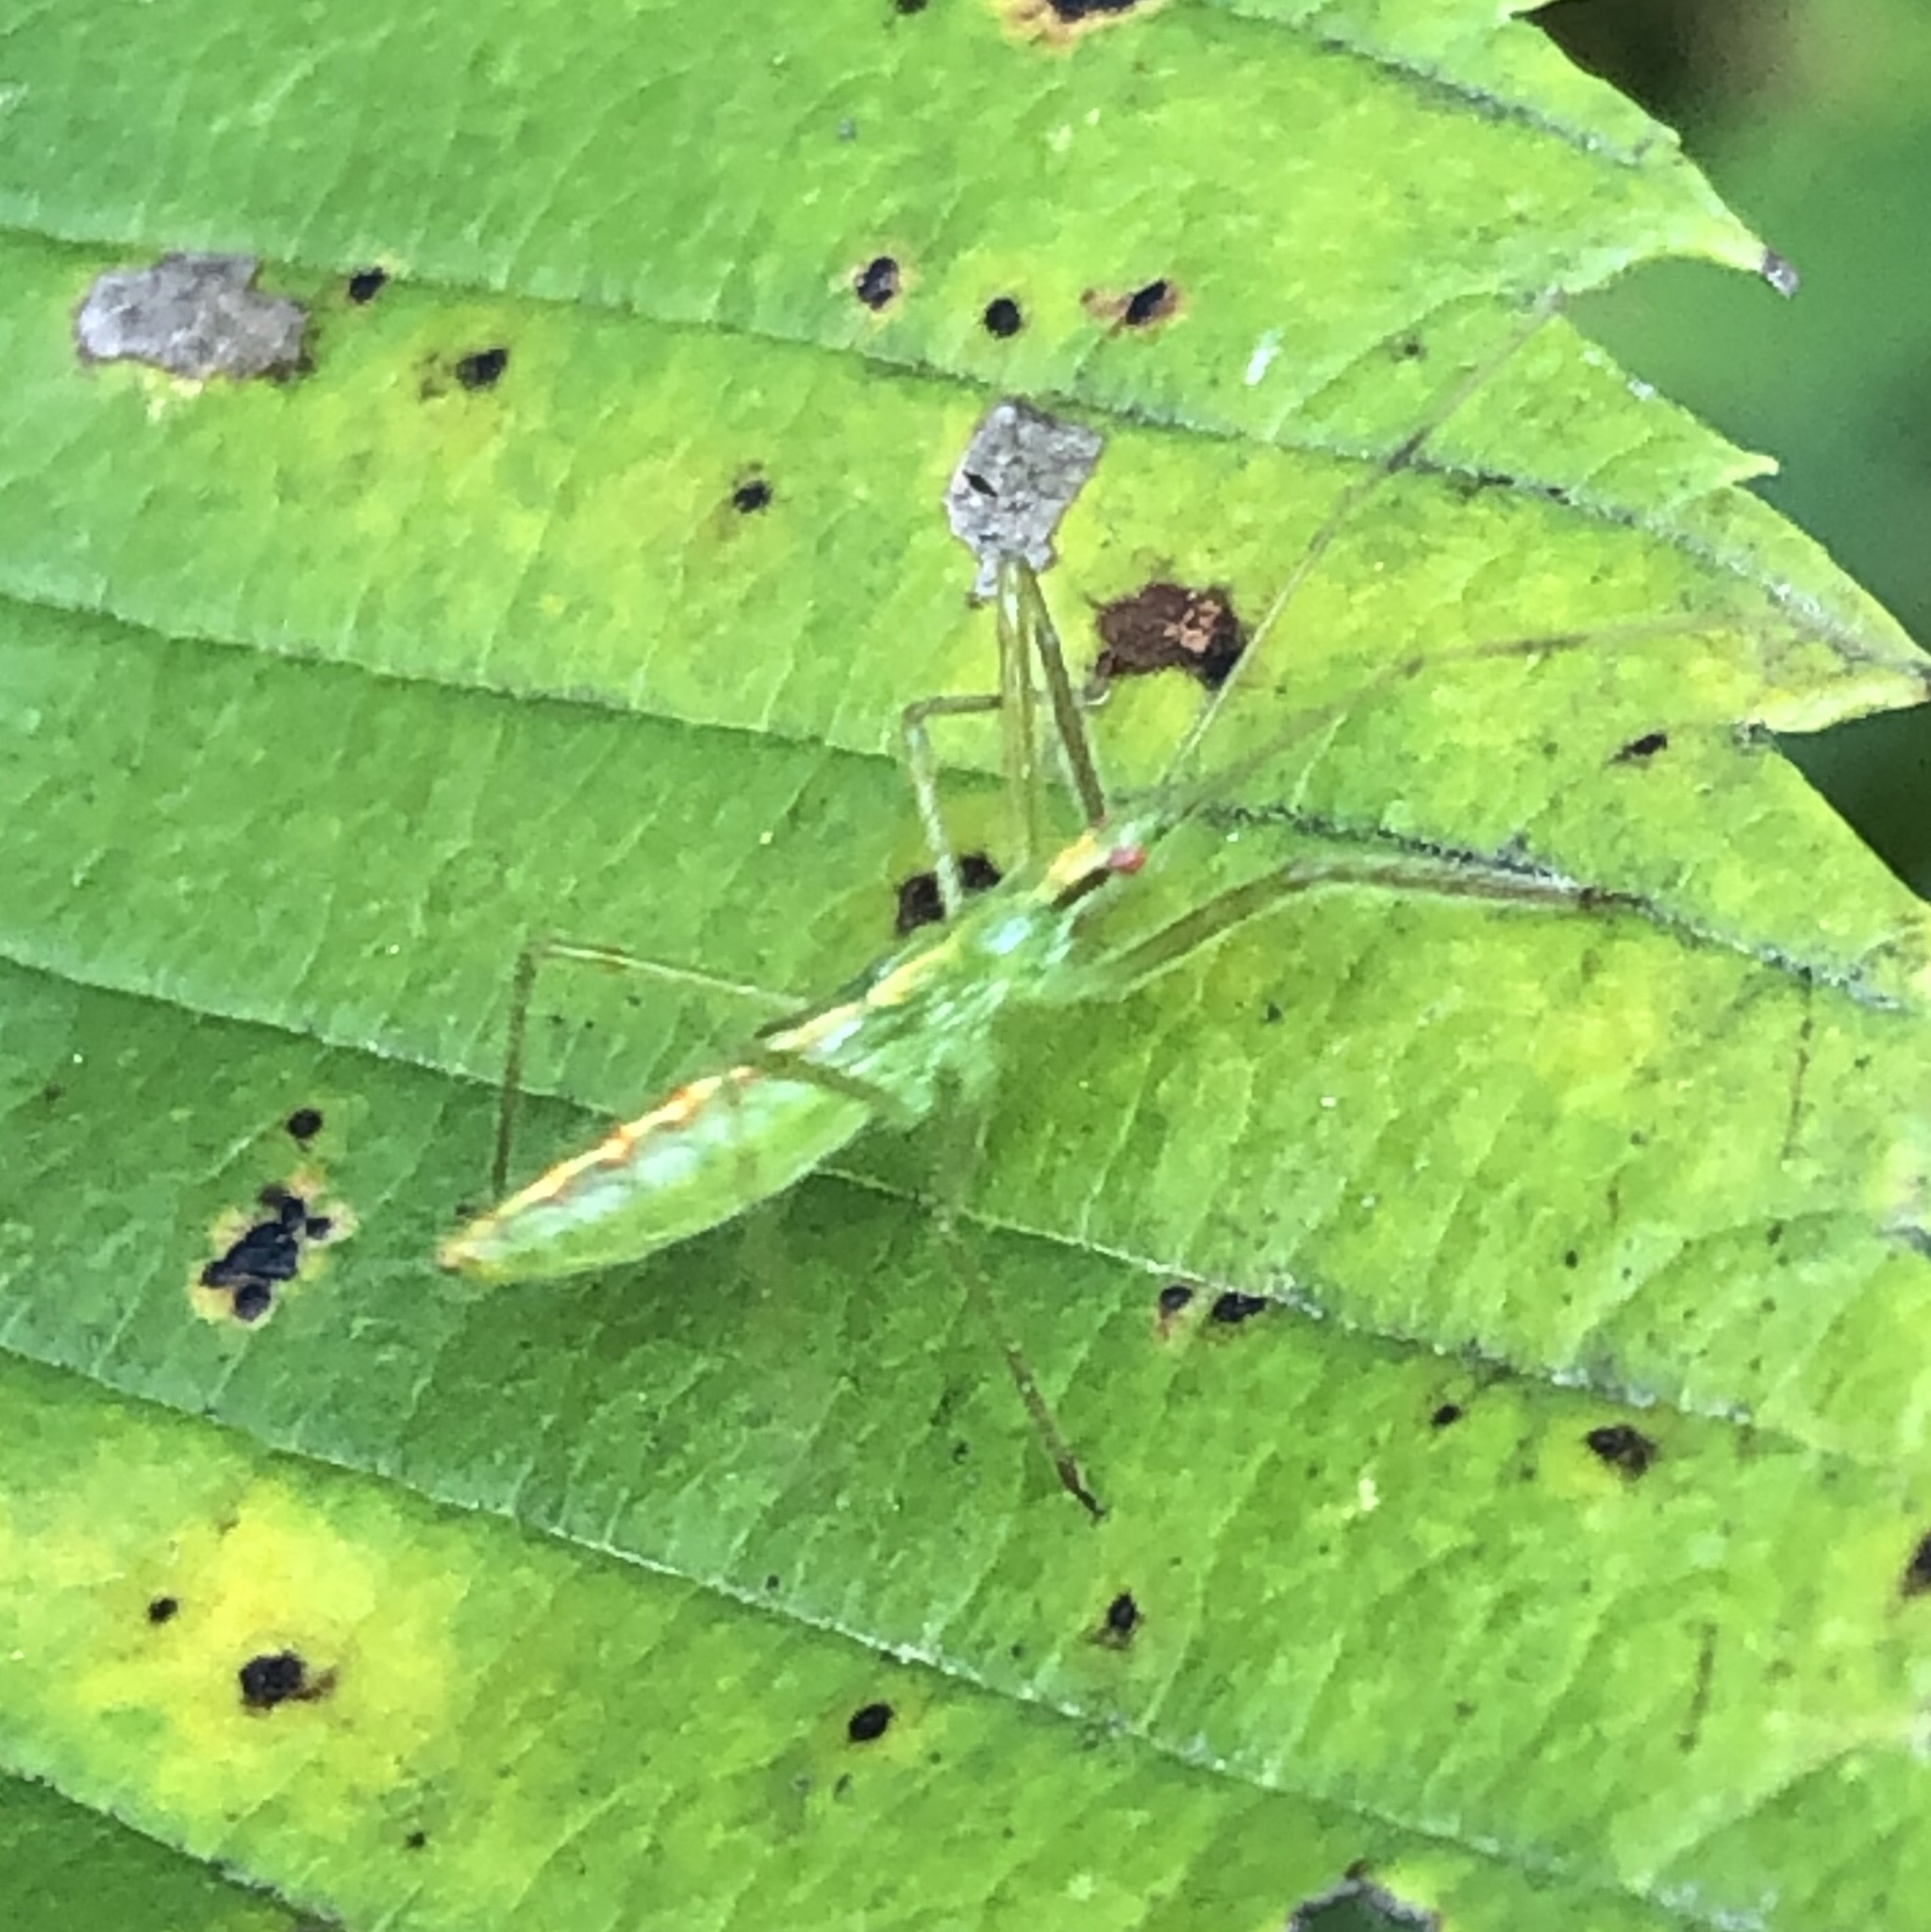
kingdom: Animalia
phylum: Arthropoda
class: Insecta
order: Hemiptera
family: Reduviidae
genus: Zelus
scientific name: Zelus luridus
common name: Pale green assassin bug
